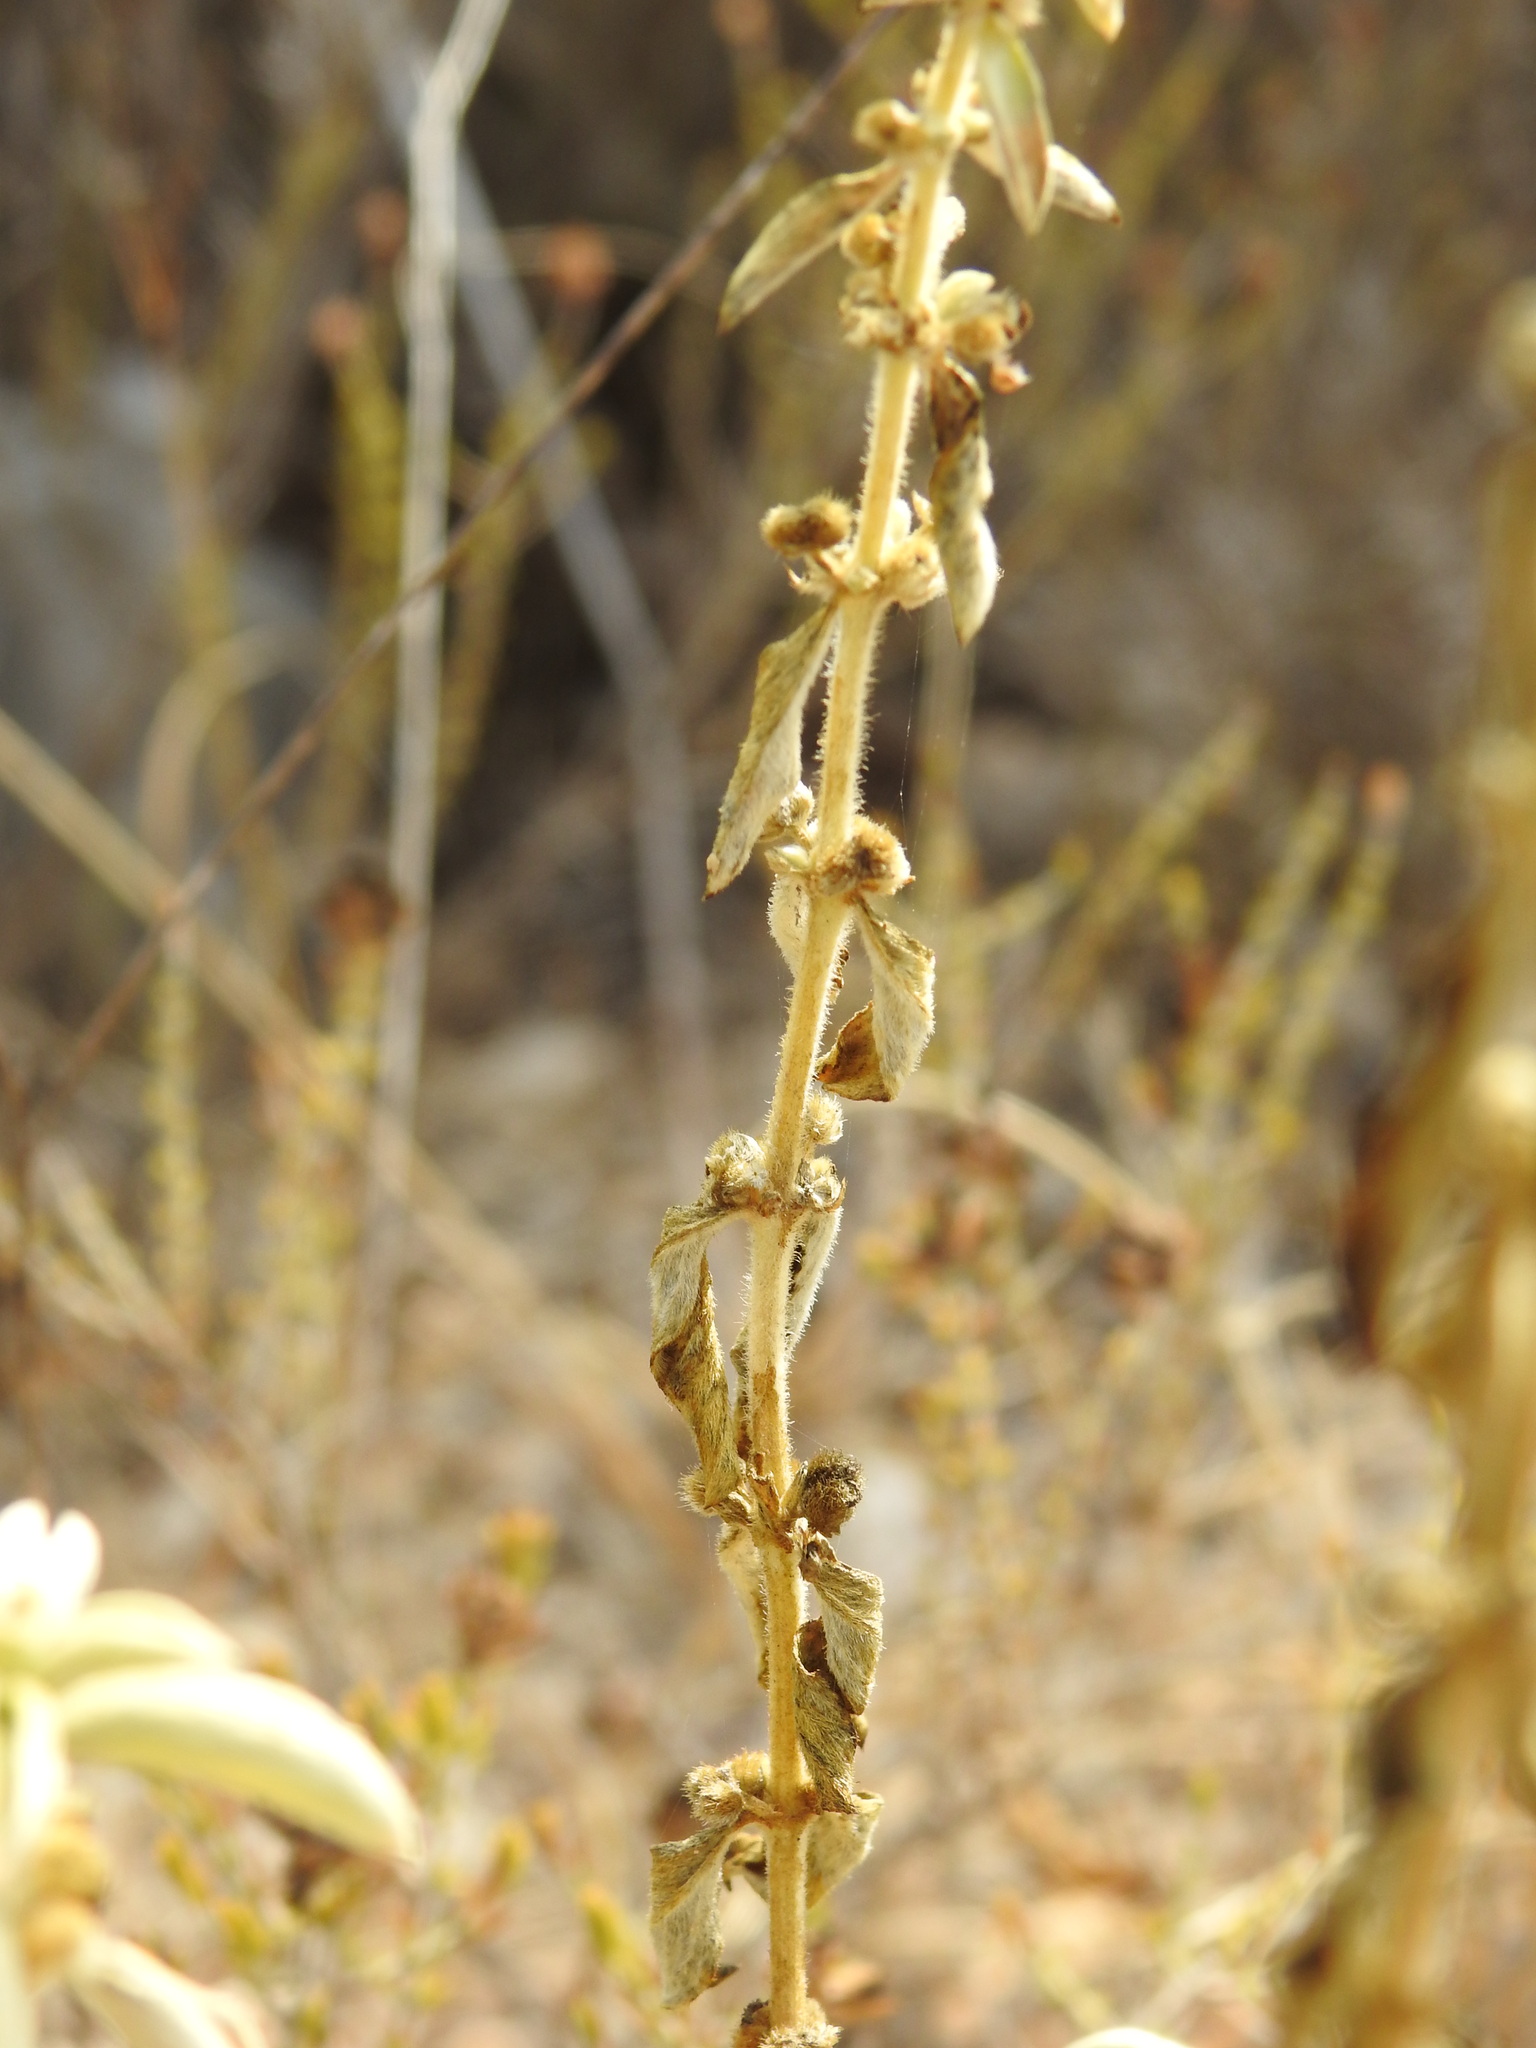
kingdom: Plantae
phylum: Tracheophyta
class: Magnoliopsida
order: Malpighiales
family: Euphorbiaceae
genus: Mercurialis
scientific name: Mercurialis tomentosa
